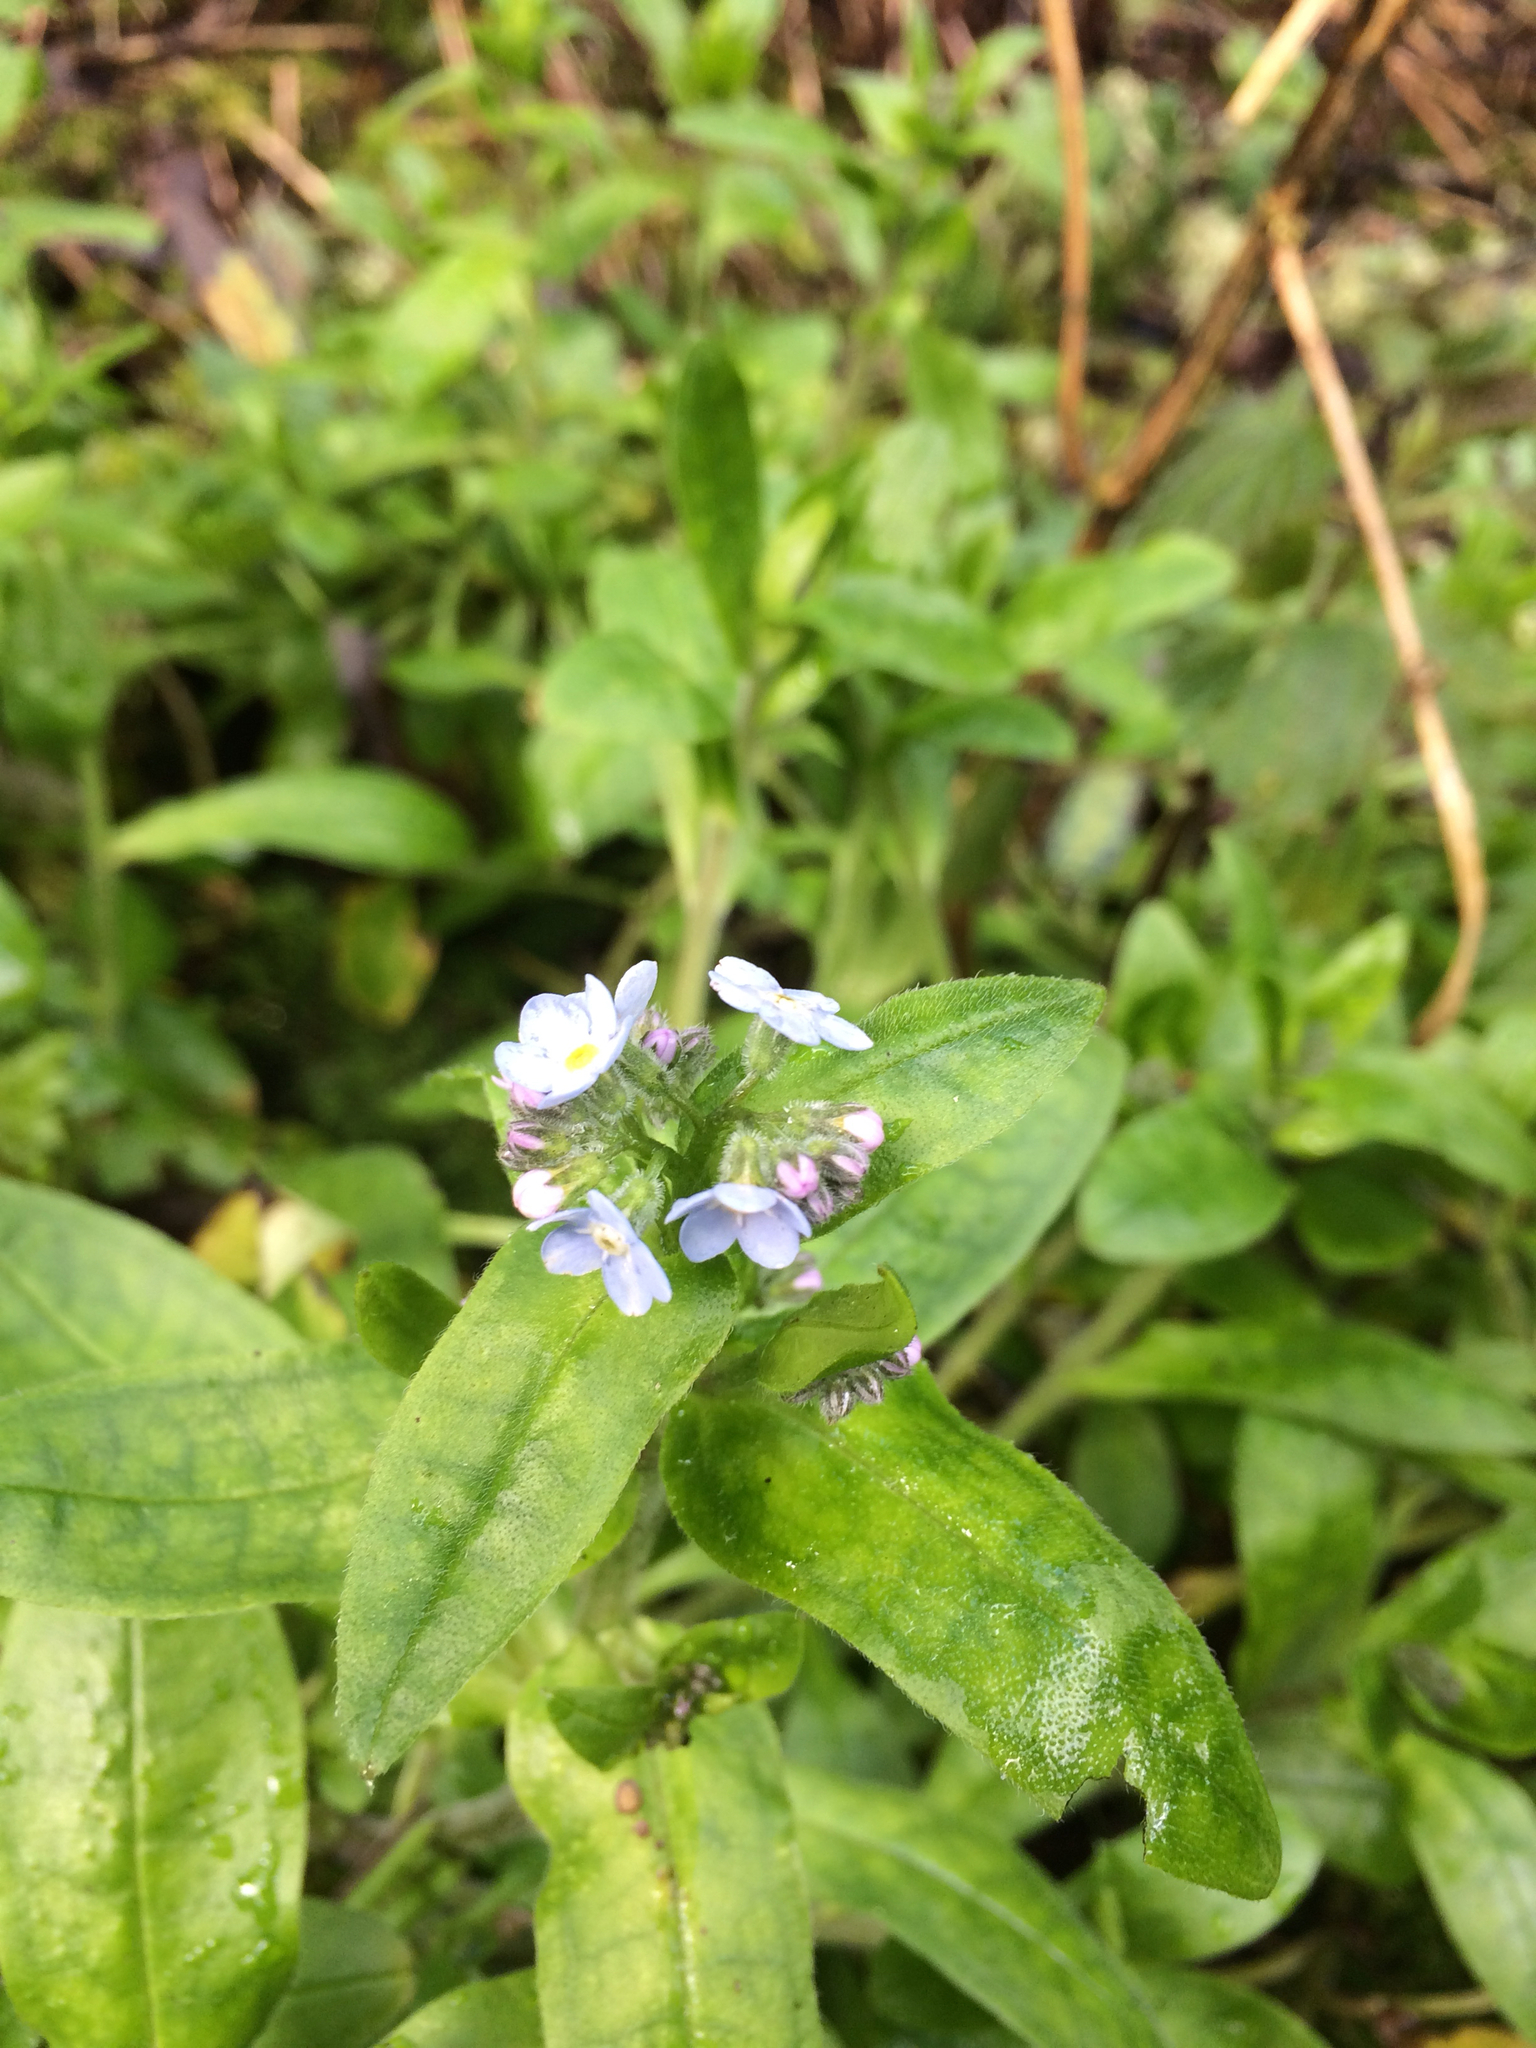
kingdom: Plantae
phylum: Tracheophyta
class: Magnoliopsida
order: Boraginales
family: Boraginaceae
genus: Myosotis
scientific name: Myosotis latifolia
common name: Broadleaf forget-me-not
